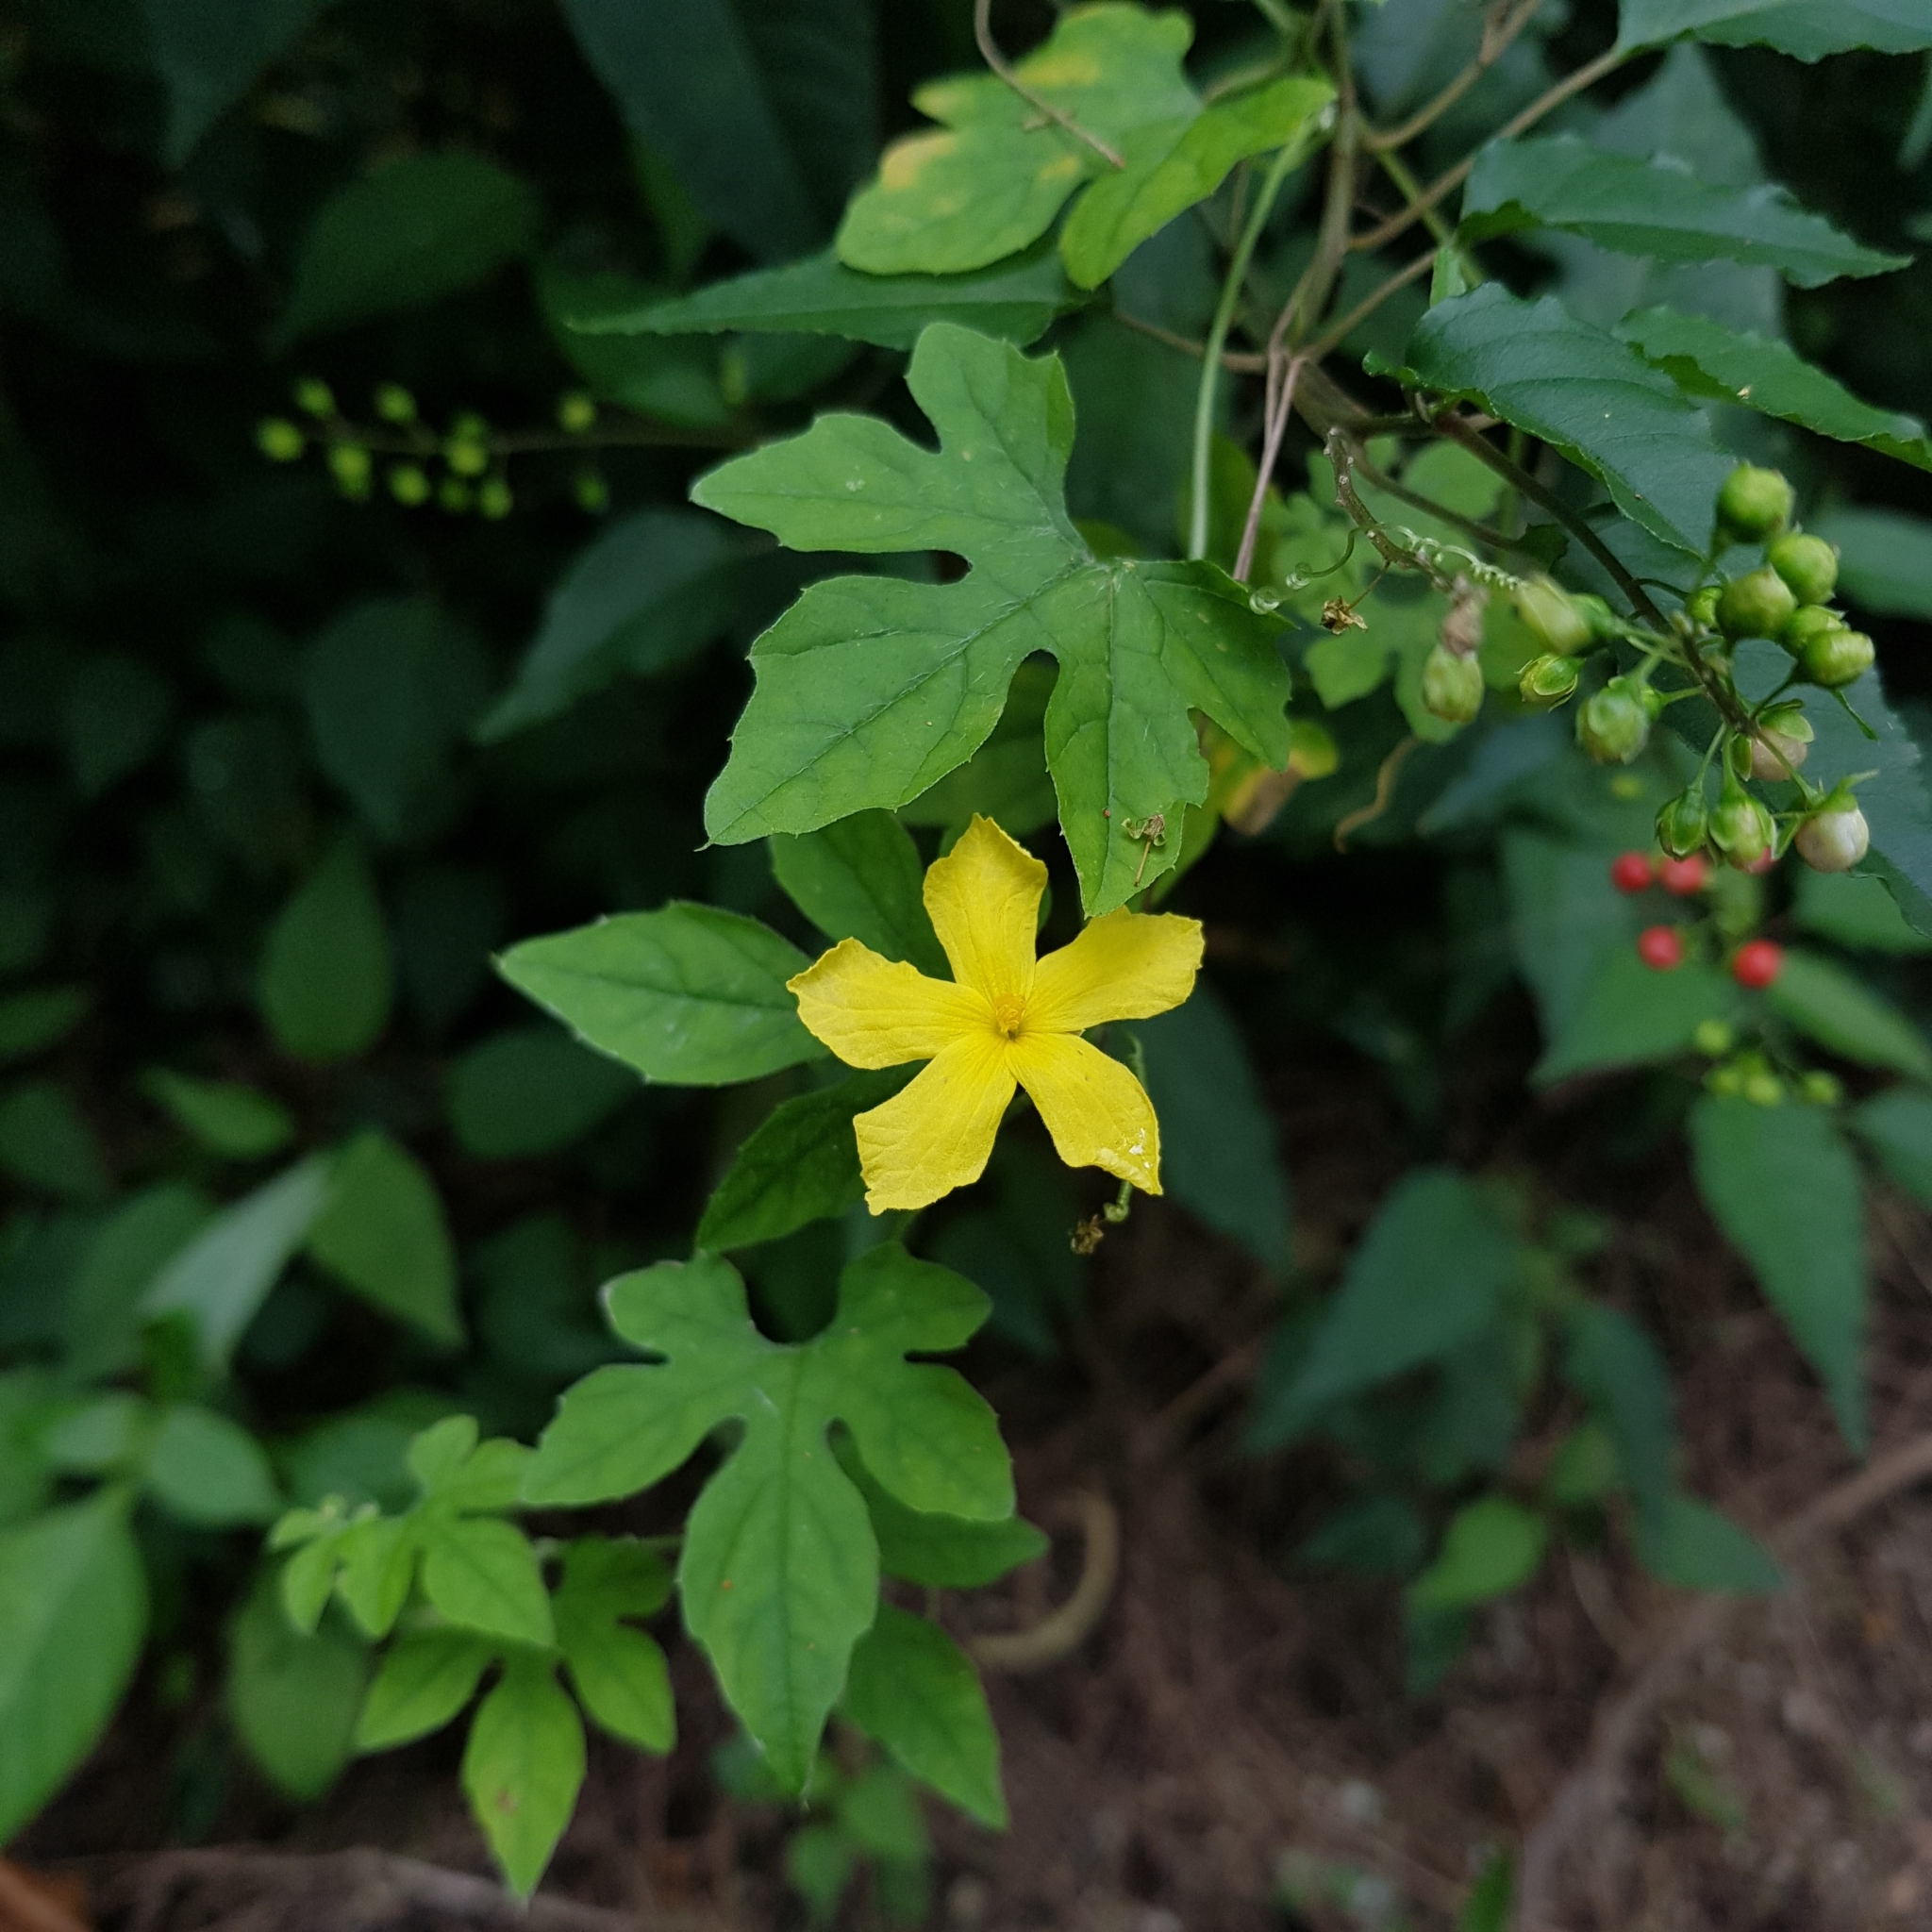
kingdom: Plantae
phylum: Tracheophyta
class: Magnoliopsida
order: Cucurbitales
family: Cucurbitaceae
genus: Momordica
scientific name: Momordica charantia
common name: Balsampear
